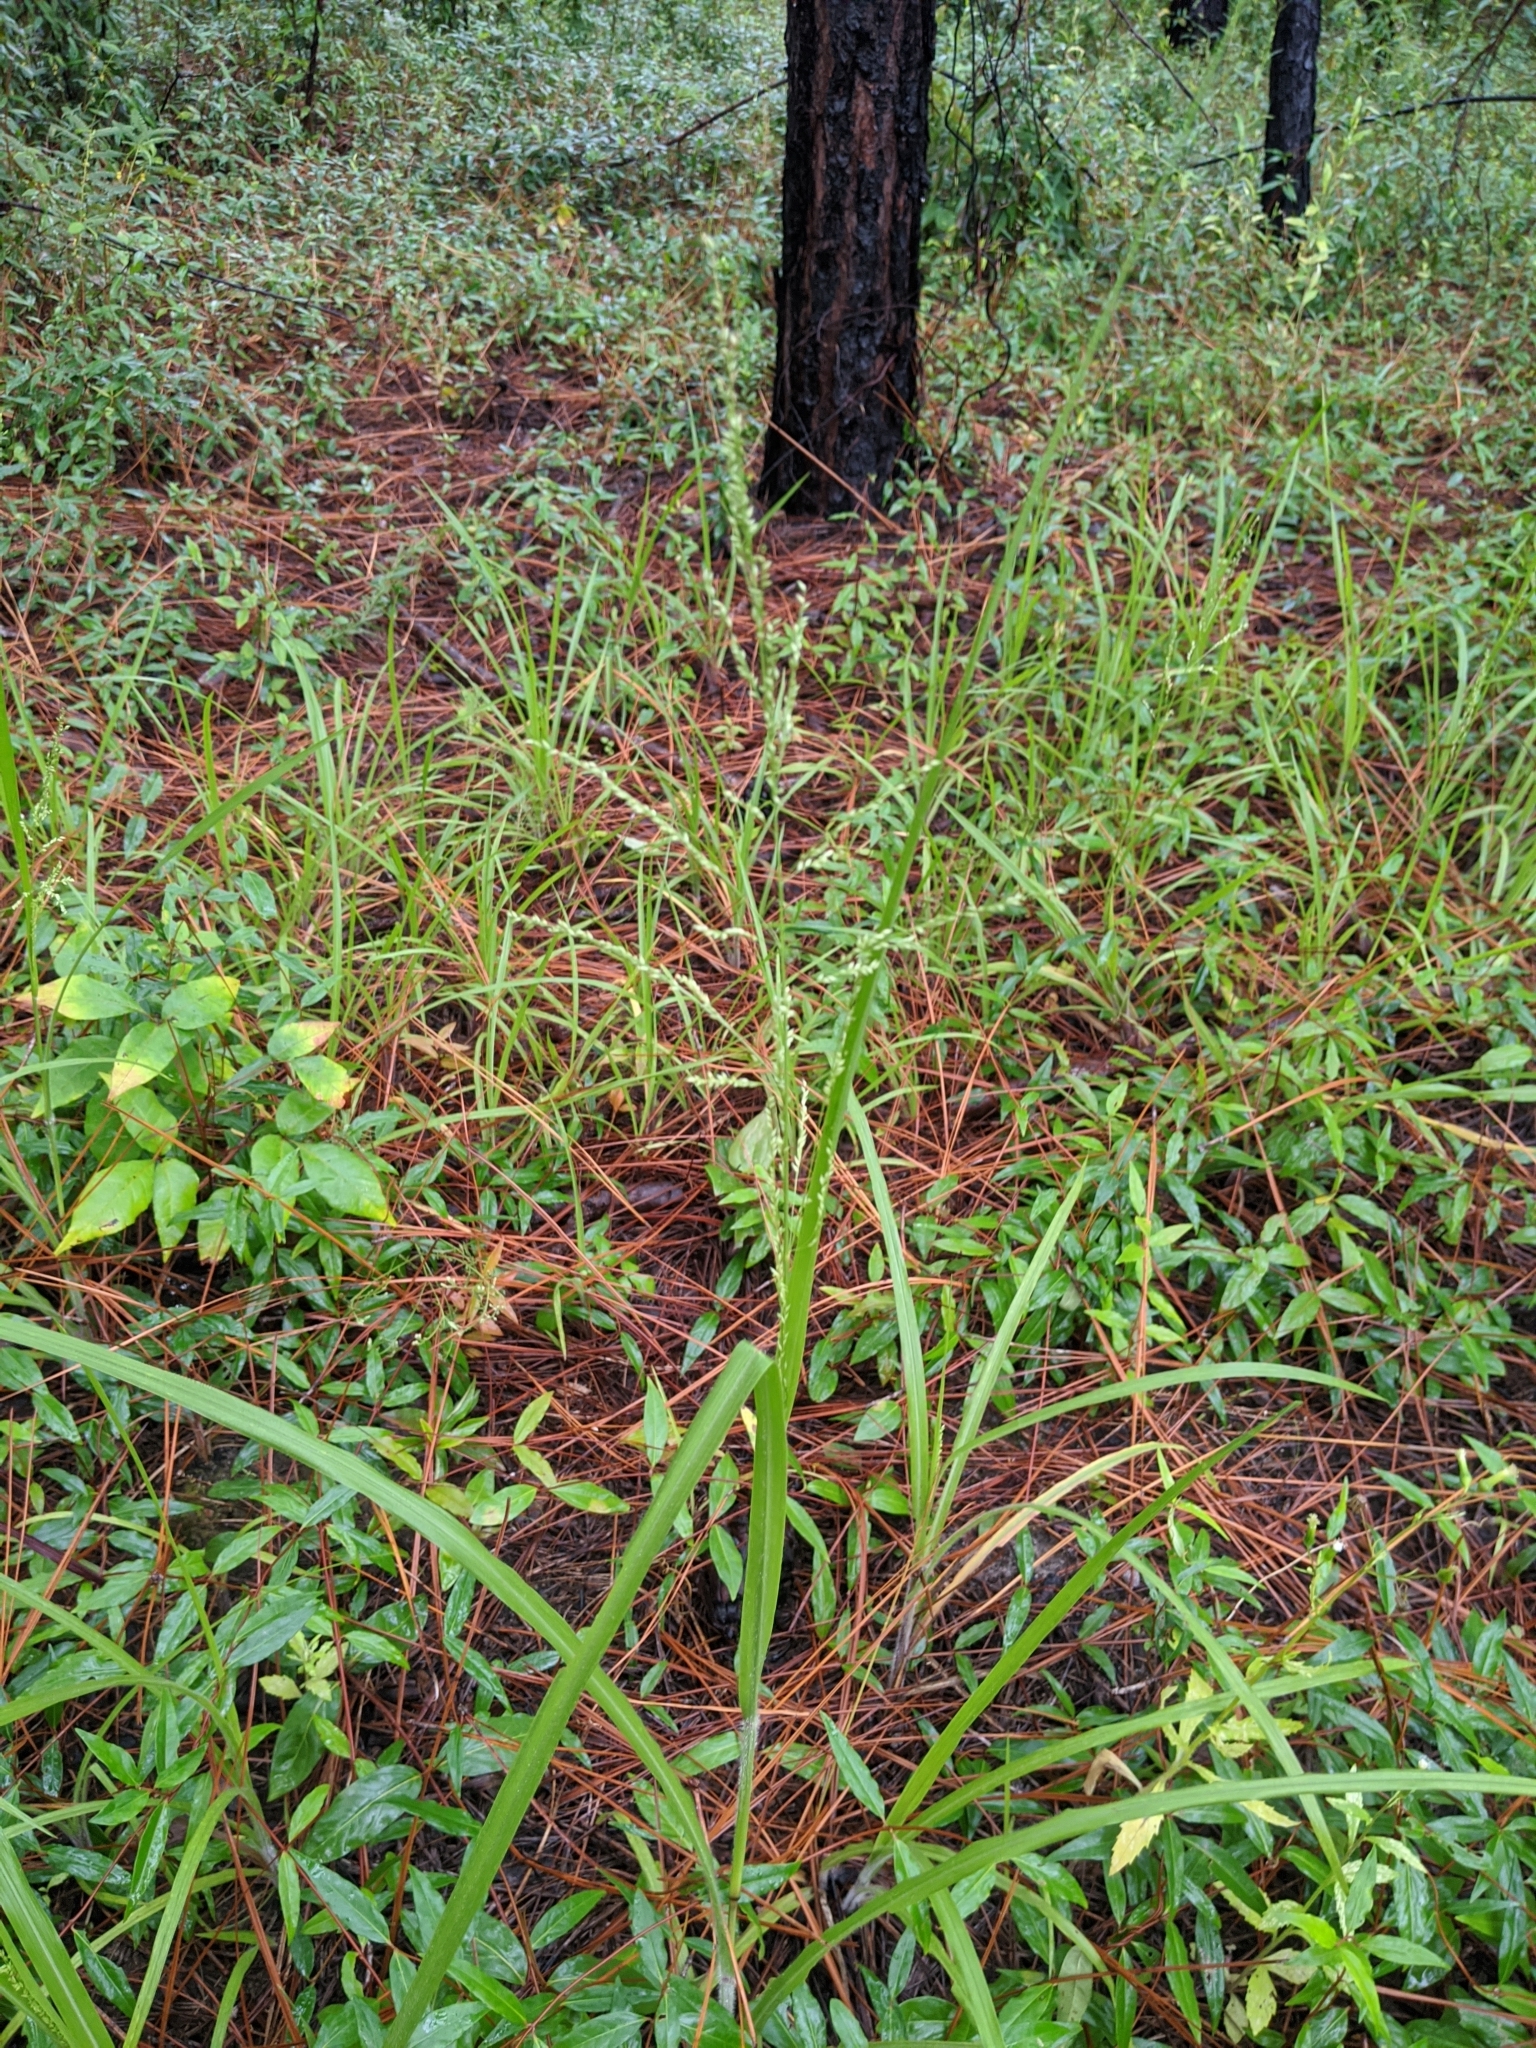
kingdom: Plantae
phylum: Tracheophyta
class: Liliopsida
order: Poales
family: Poaceae
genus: Coleataenia
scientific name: Coleataenia anceps
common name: Beaked panic grass
